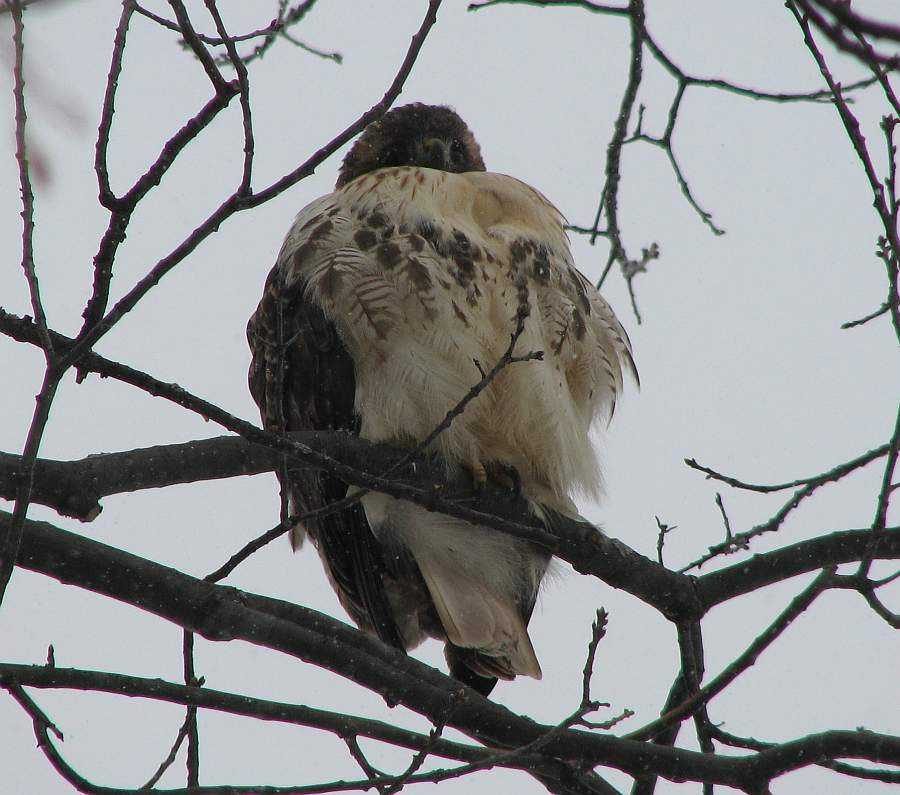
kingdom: Animalia
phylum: Chordata
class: Aves
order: Accipitriformes
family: Accipitridae
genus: Buteo
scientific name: Buteo jamaicensis
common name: Red-tailed hawk
